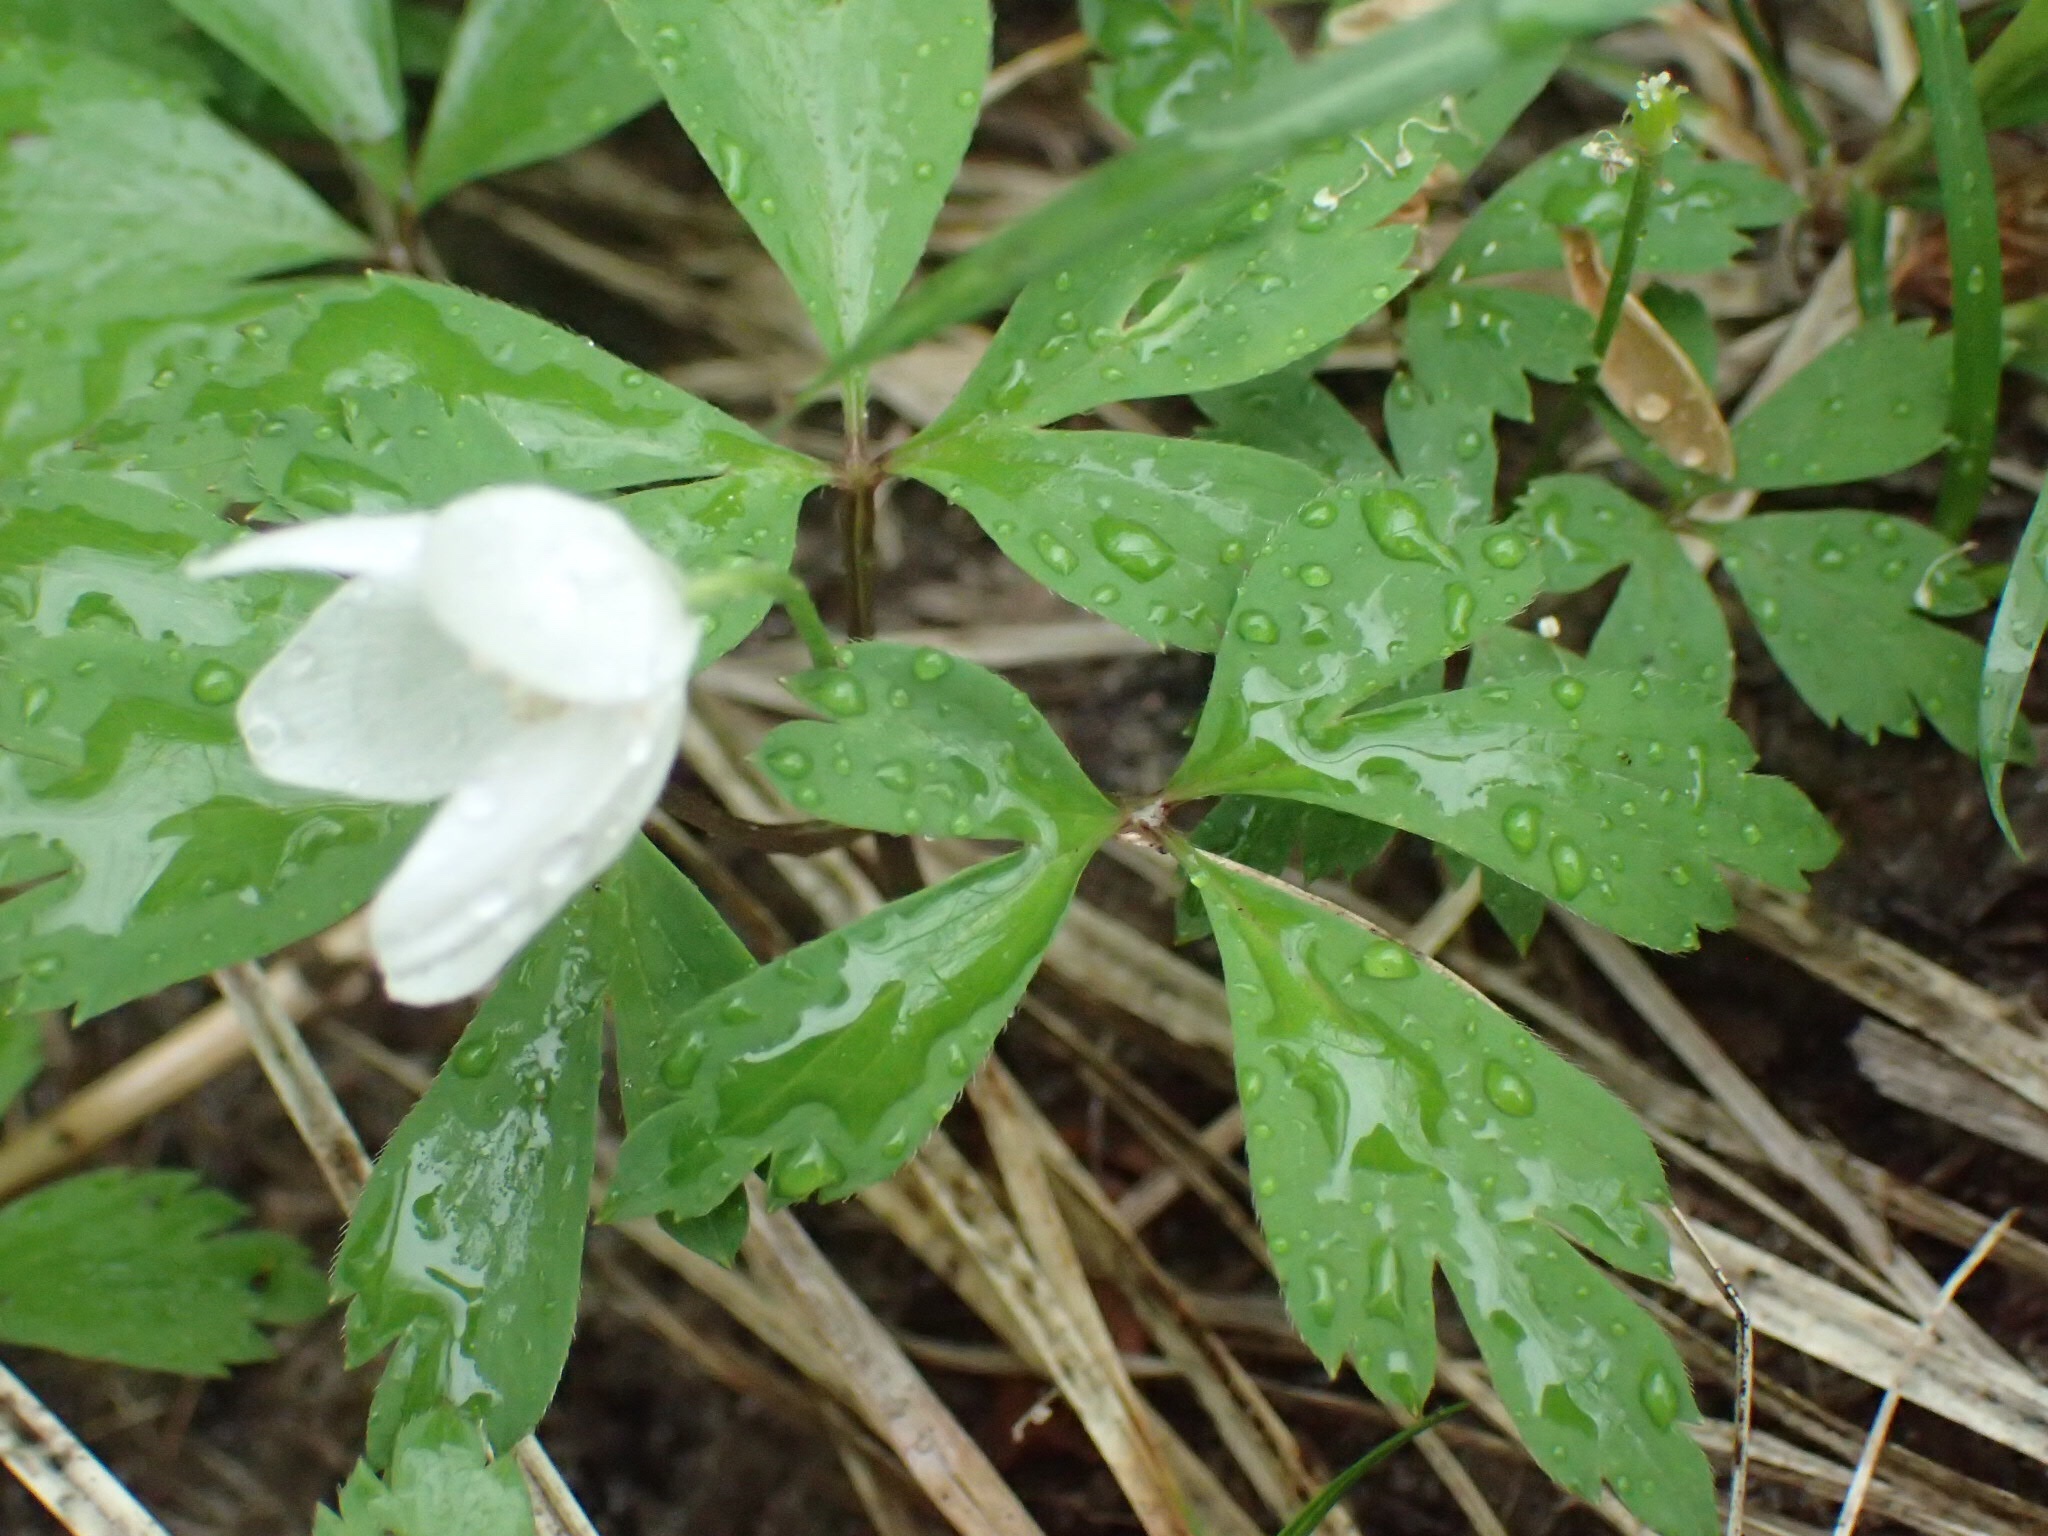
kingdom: Plantae
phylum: Tracheophyta
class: Magnoliopsida
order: Ranunculales
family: Ranunculaceae
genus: Anemone
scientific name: Anemone quinquefolia
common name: Wood anemone
